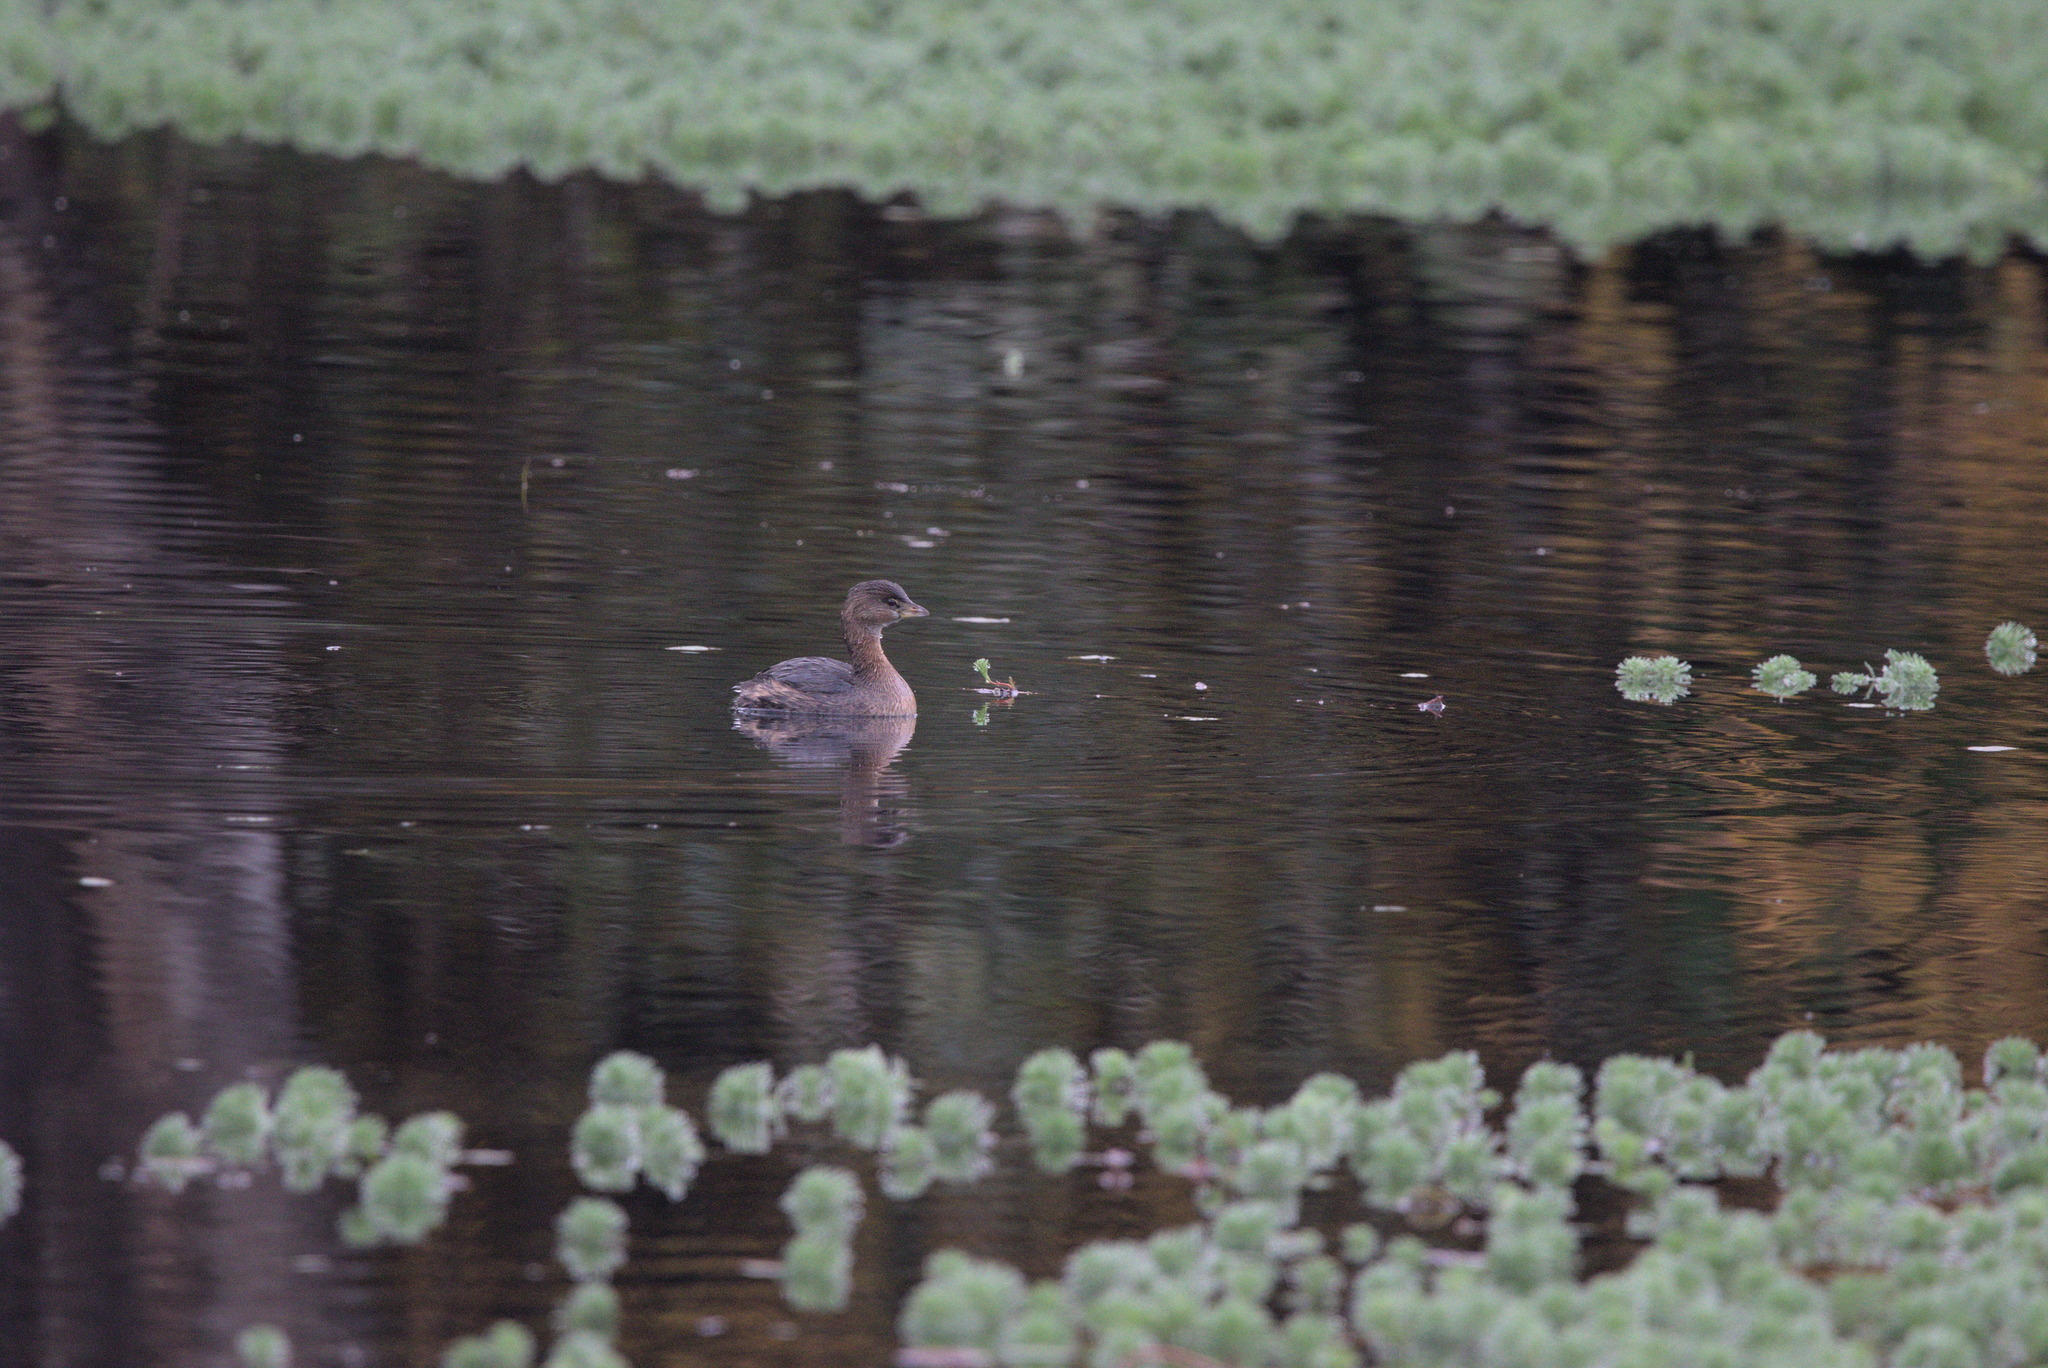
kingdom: Animalia
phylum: Chordata
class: Aves
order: Podicipediformes
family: Podicipedidae
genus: Podilymbus
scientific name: Podilymbus podiceps
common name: Pied-billed grebe
